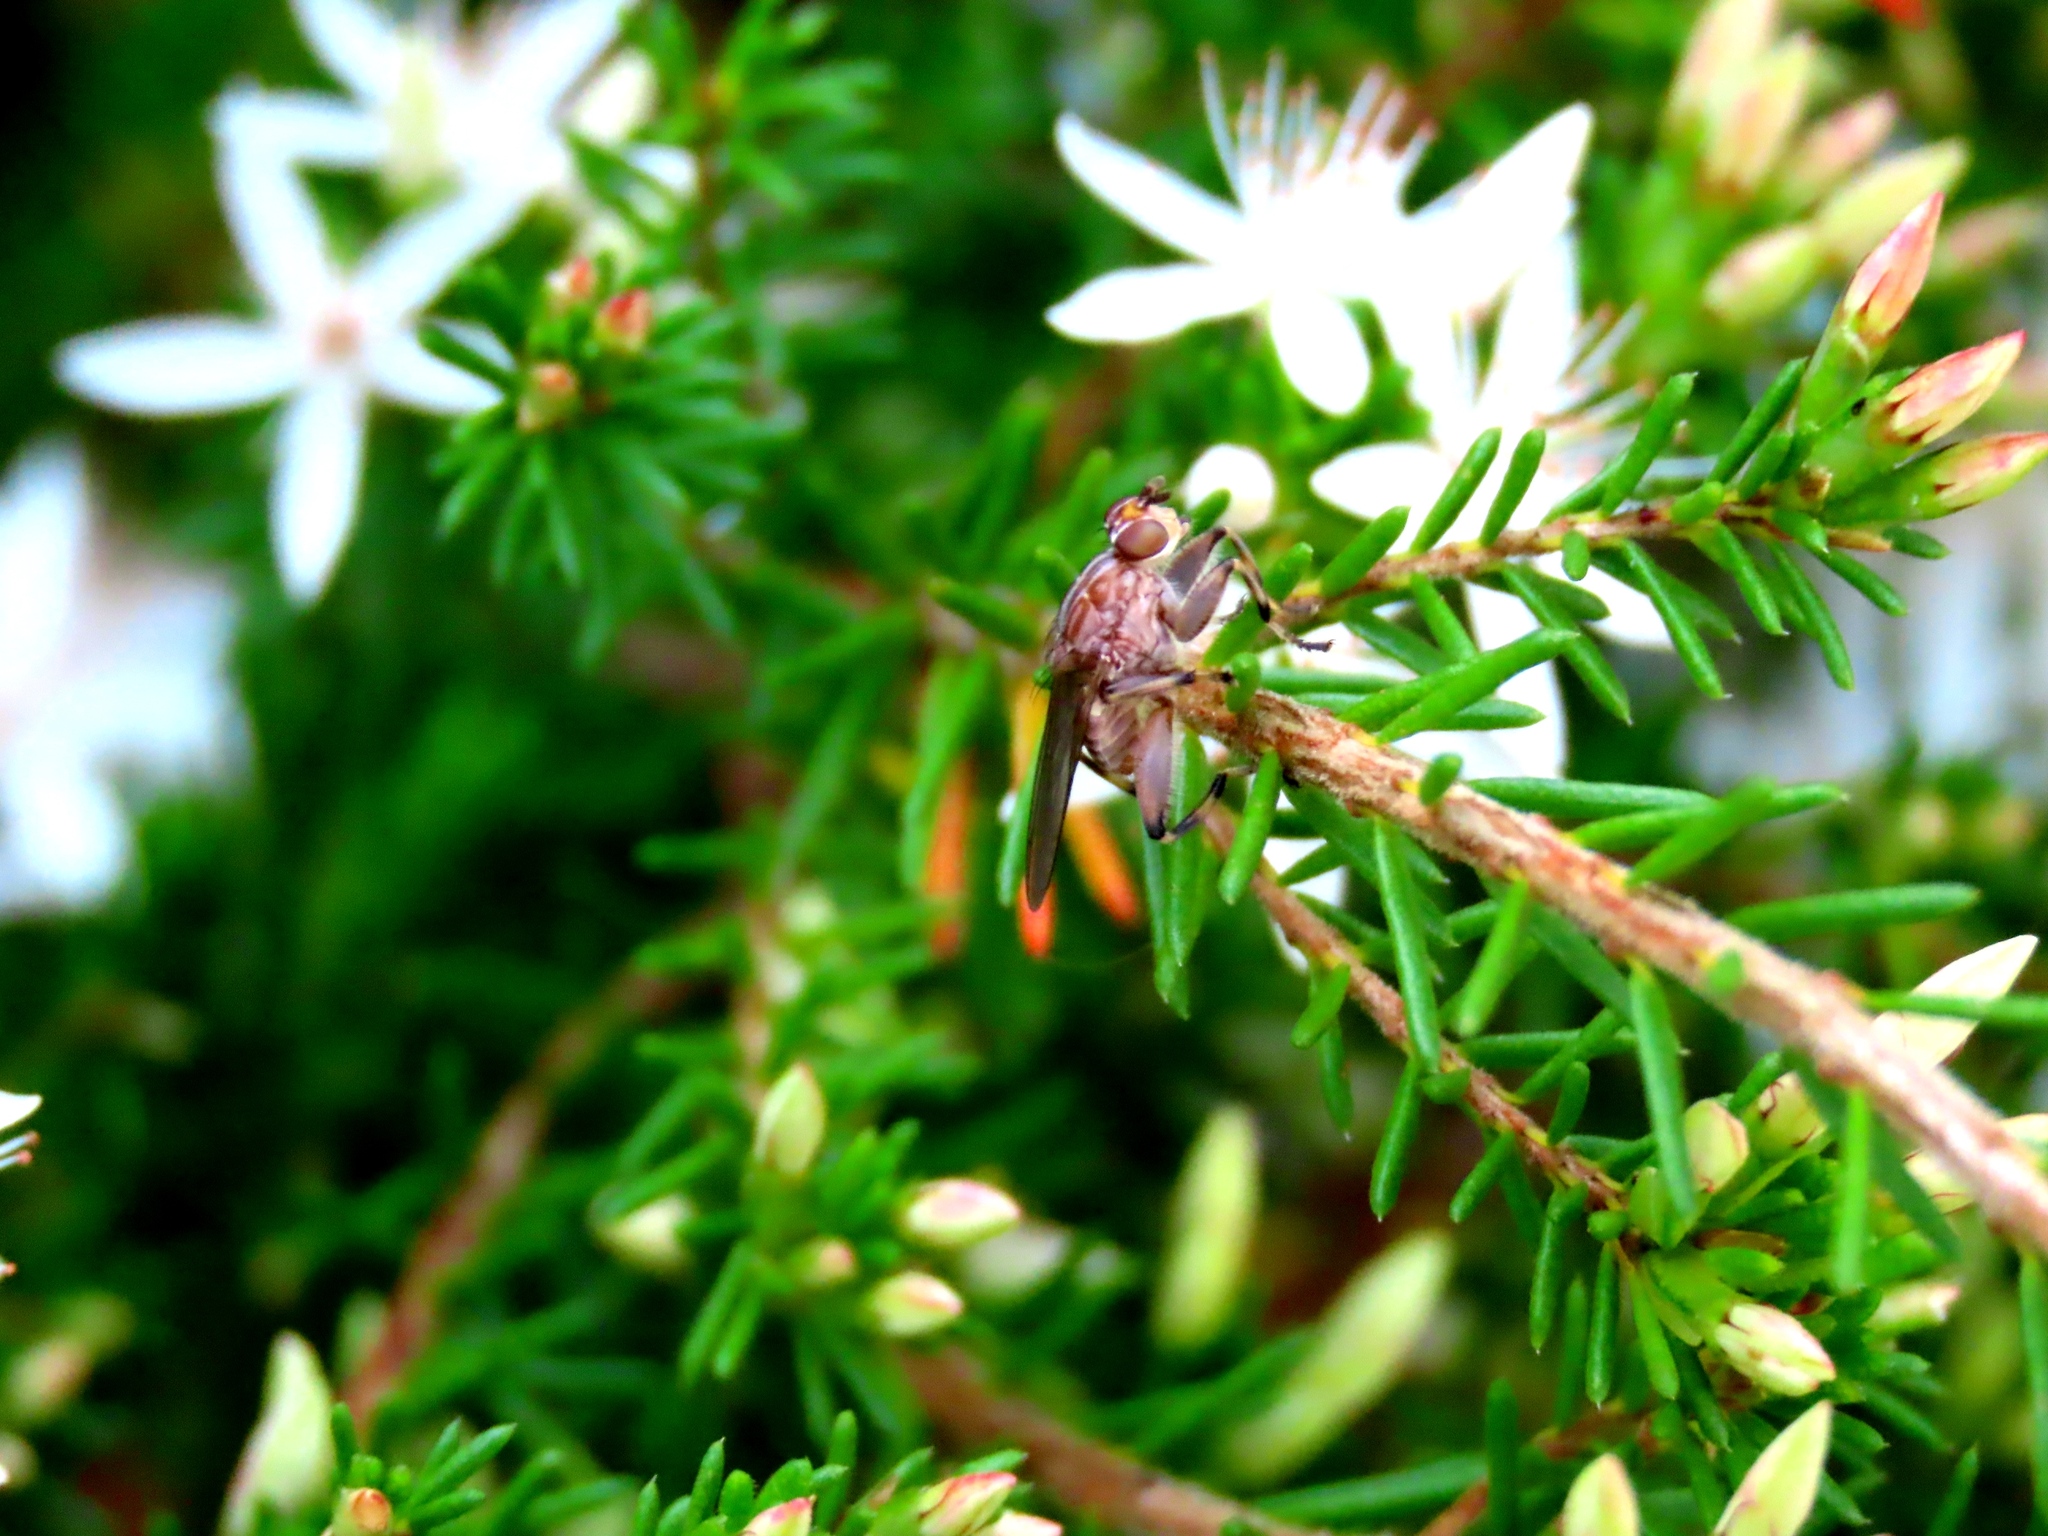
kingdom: Animalia
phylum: Arthropoda
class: Insecta
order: Diptera
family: Heleomyzidae
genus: Tapeigaster
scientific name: Tapeigaster nigricornis
